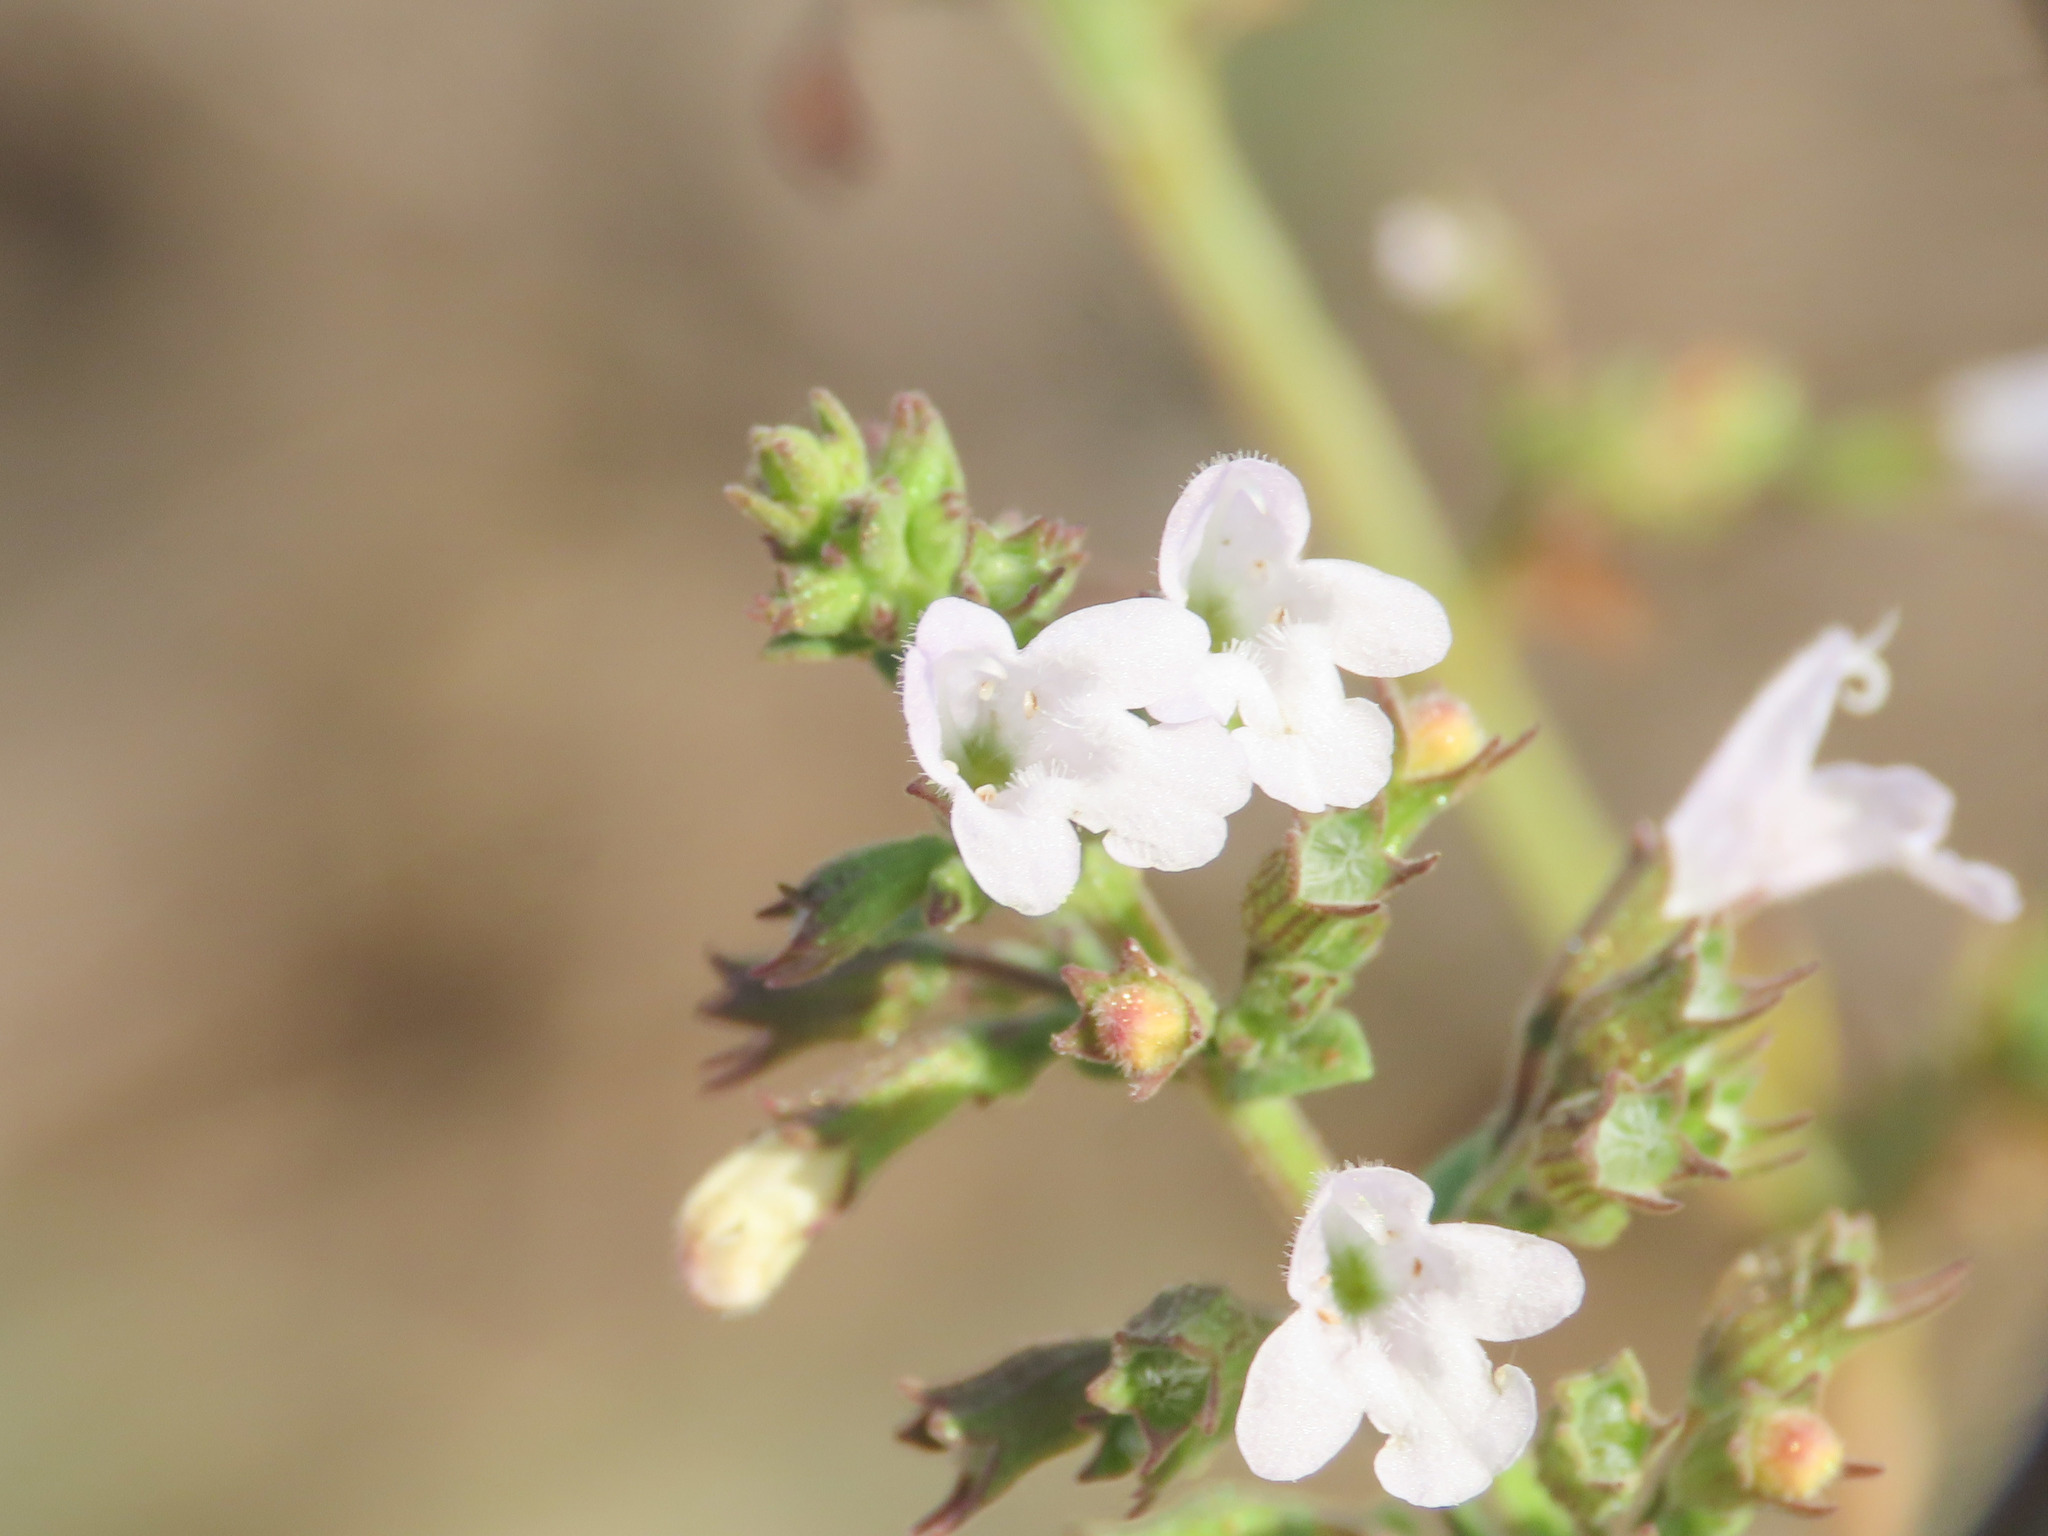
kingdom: Plantae
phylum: Tracheophyta
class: Magnoliopsida
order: Lamiales
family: Lamiaceae
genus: Clinopodium
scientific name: Clinopodium nepeta
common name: Lesser calamint
